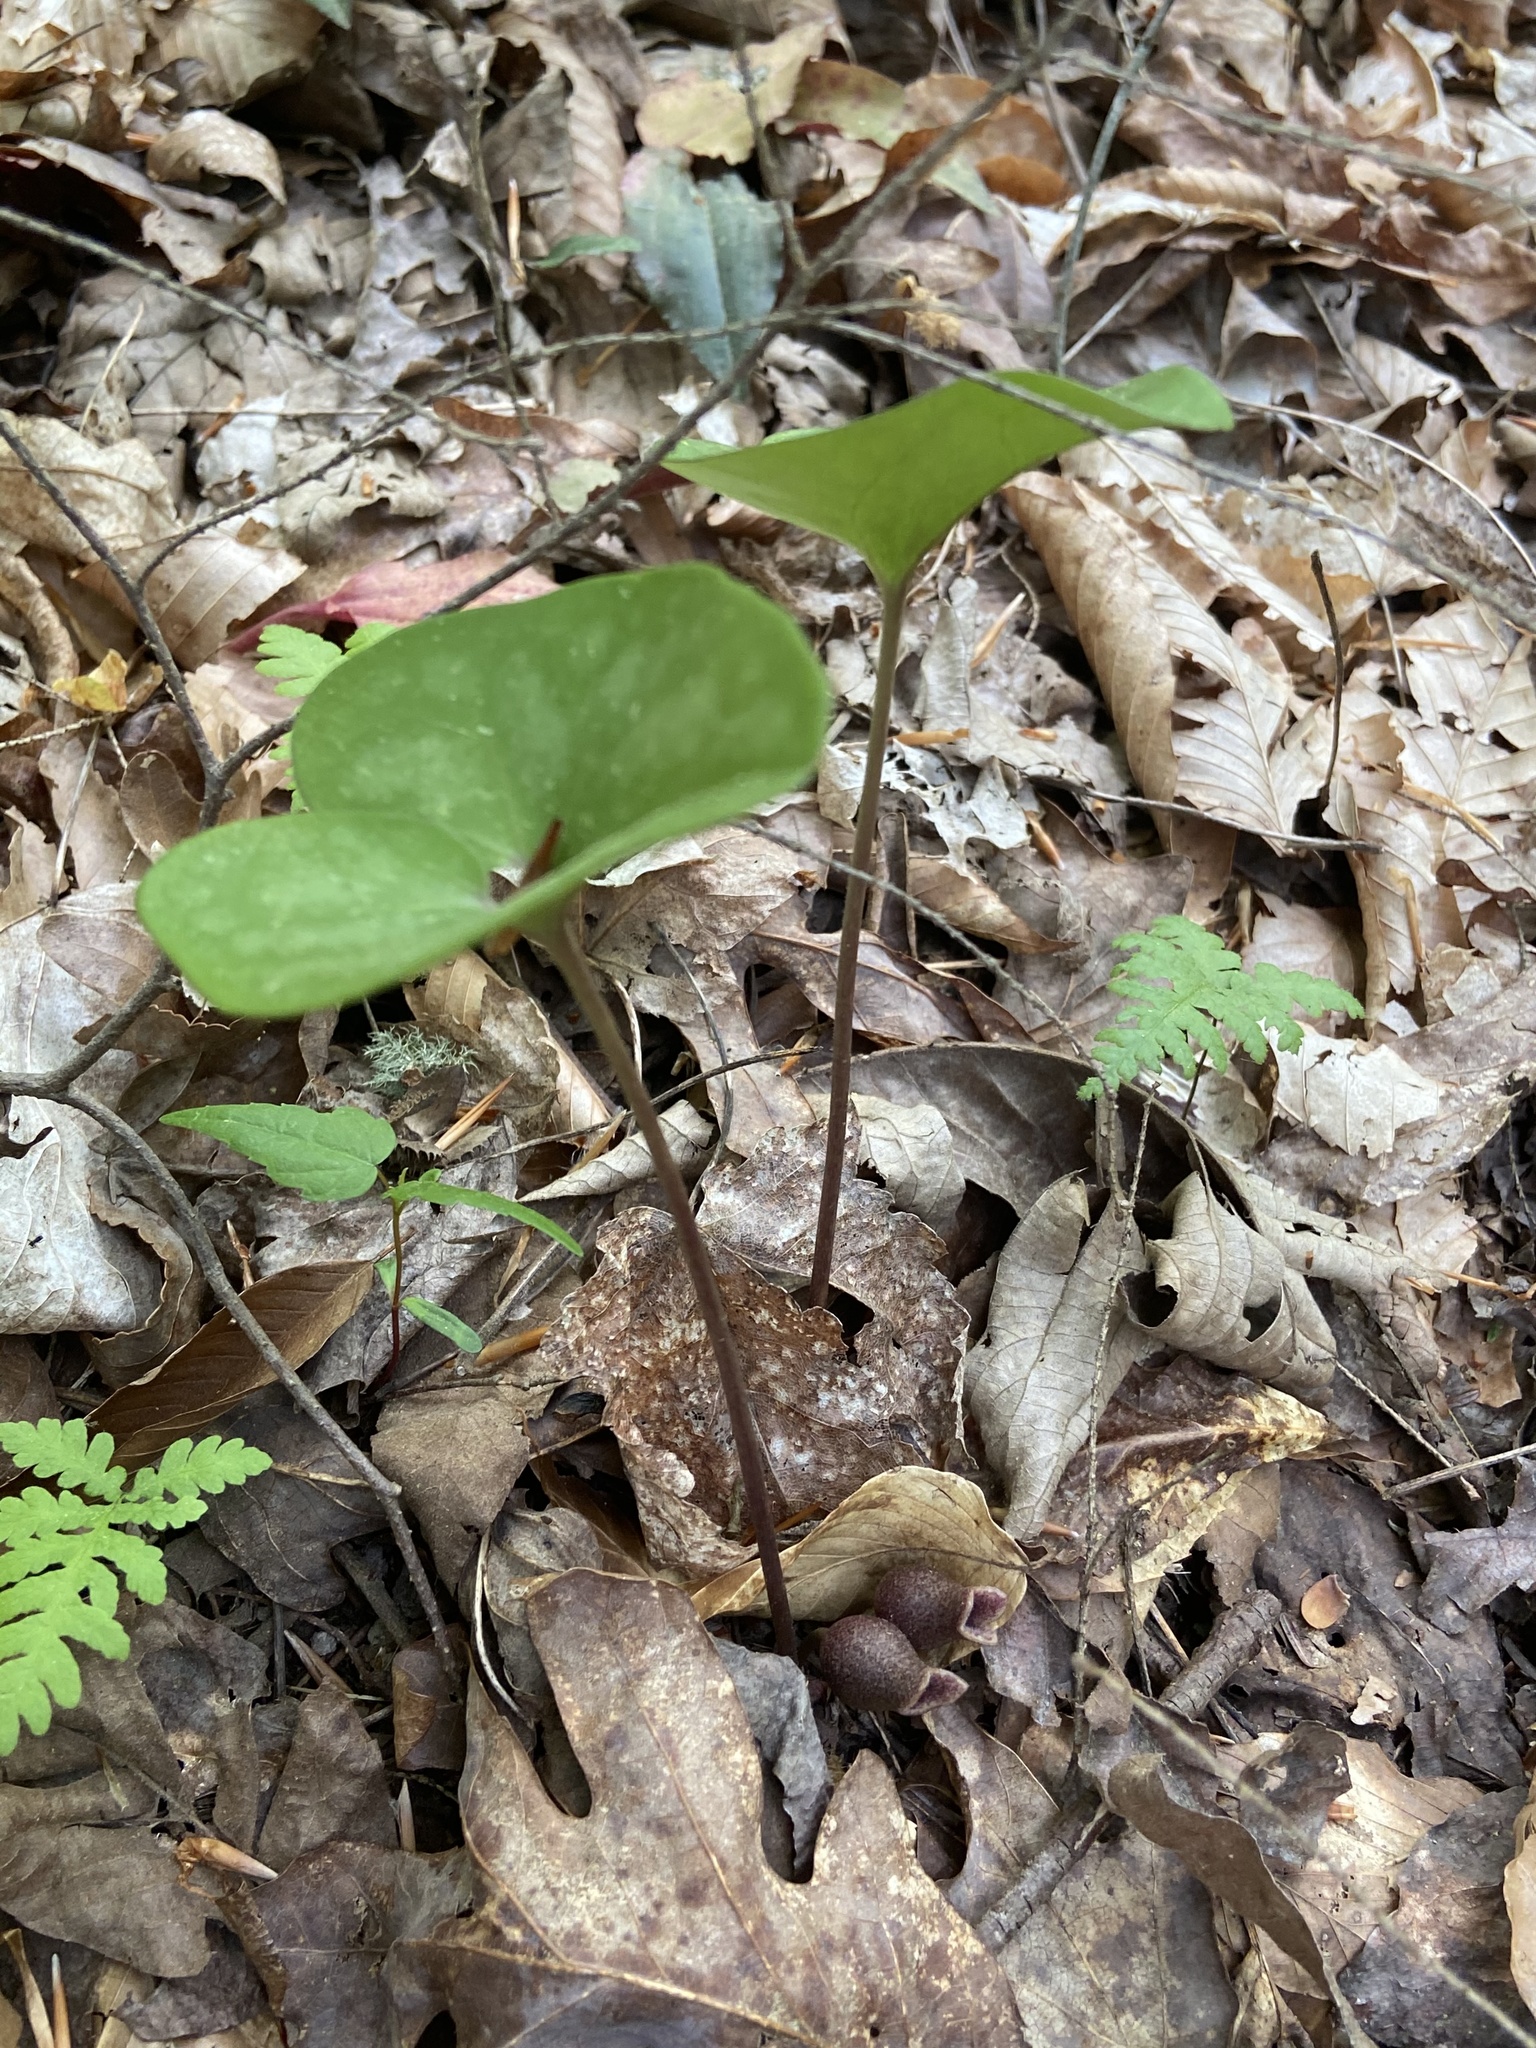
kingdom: Plantae
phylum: Tracheophyta
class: Magnoliopsida
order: Piperales
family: Aristolochiaceae
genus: Hexastylis
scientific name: Hexastylis arifolia
